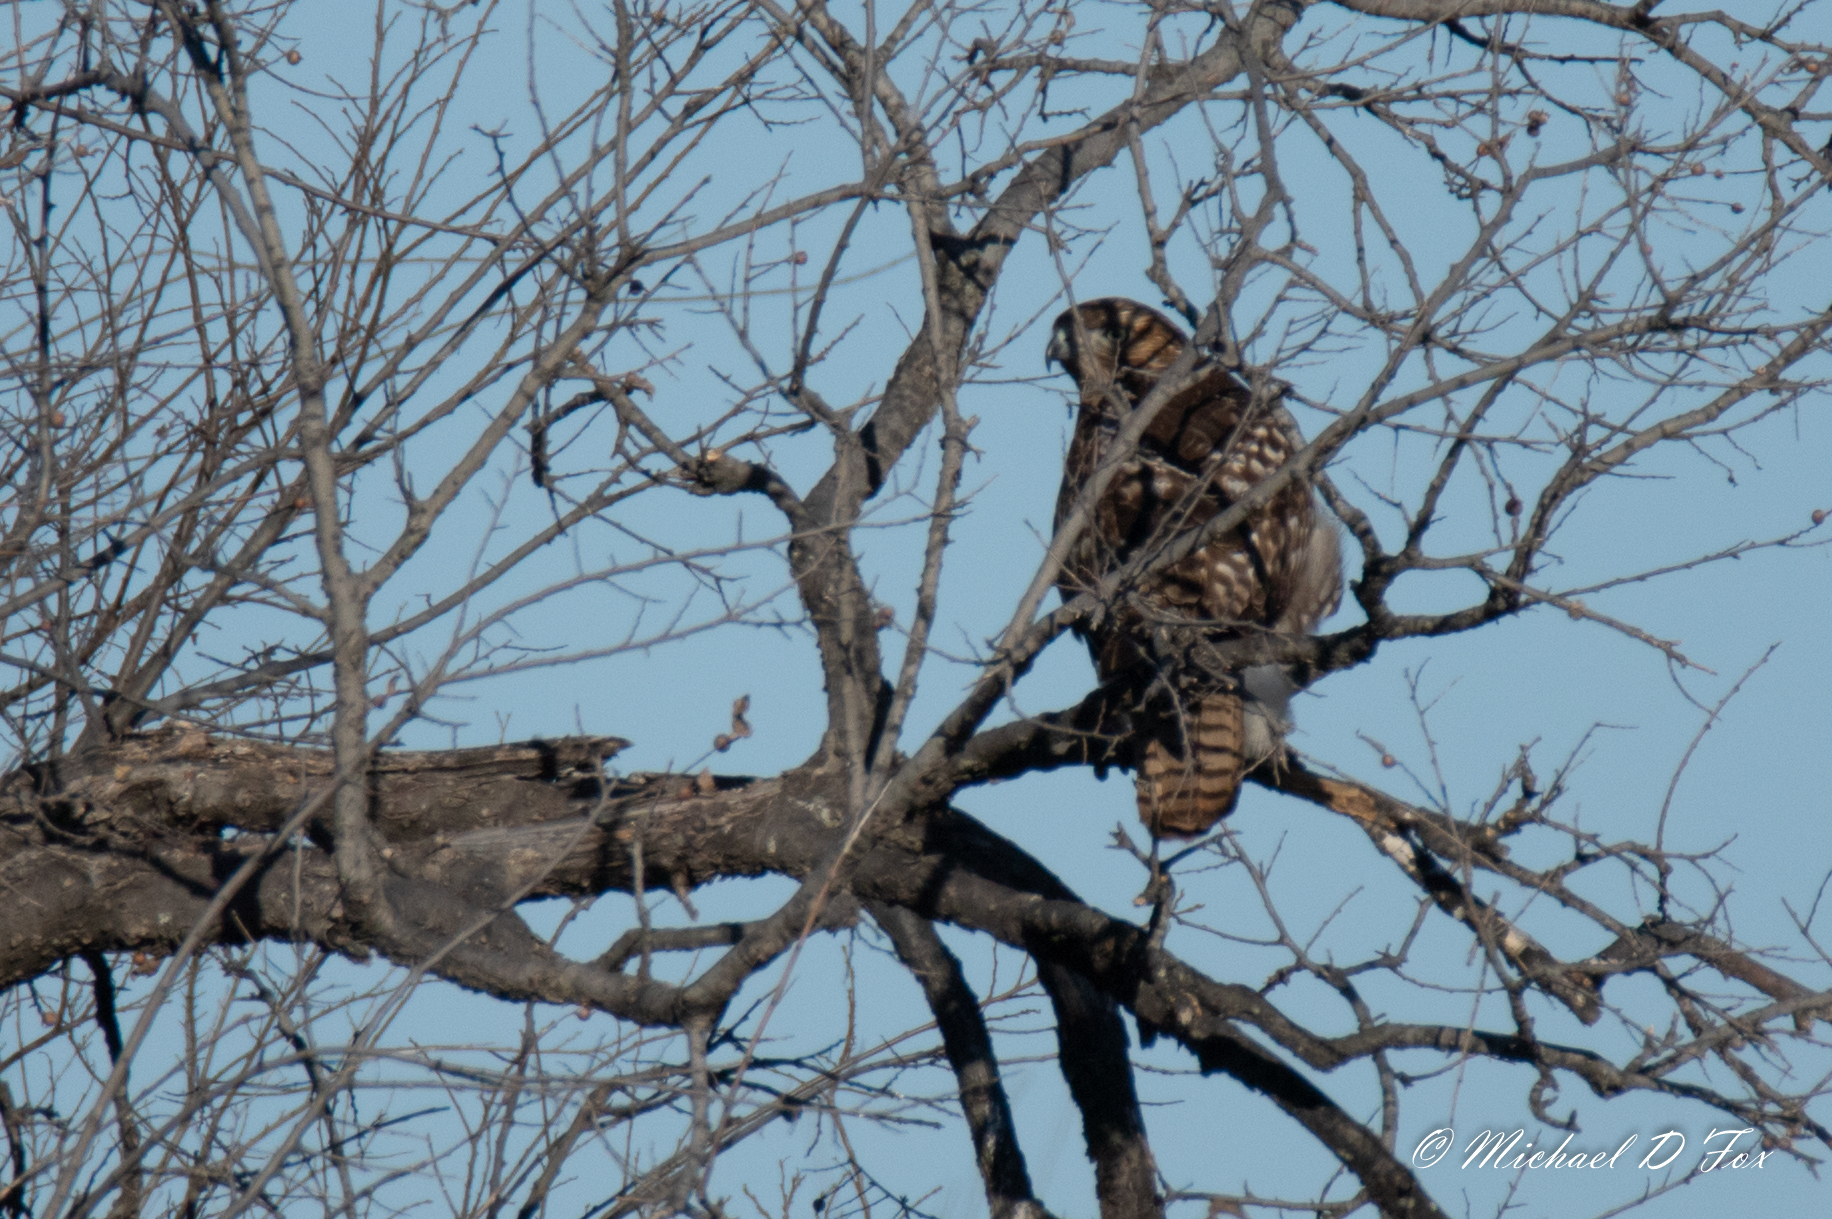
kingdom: Animalia
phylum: Chordata
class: Aves
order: Accipitriformes
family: Accipitridae
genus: Buteo
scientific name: Buteo jamaicensis
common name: Red-tailed hawk
